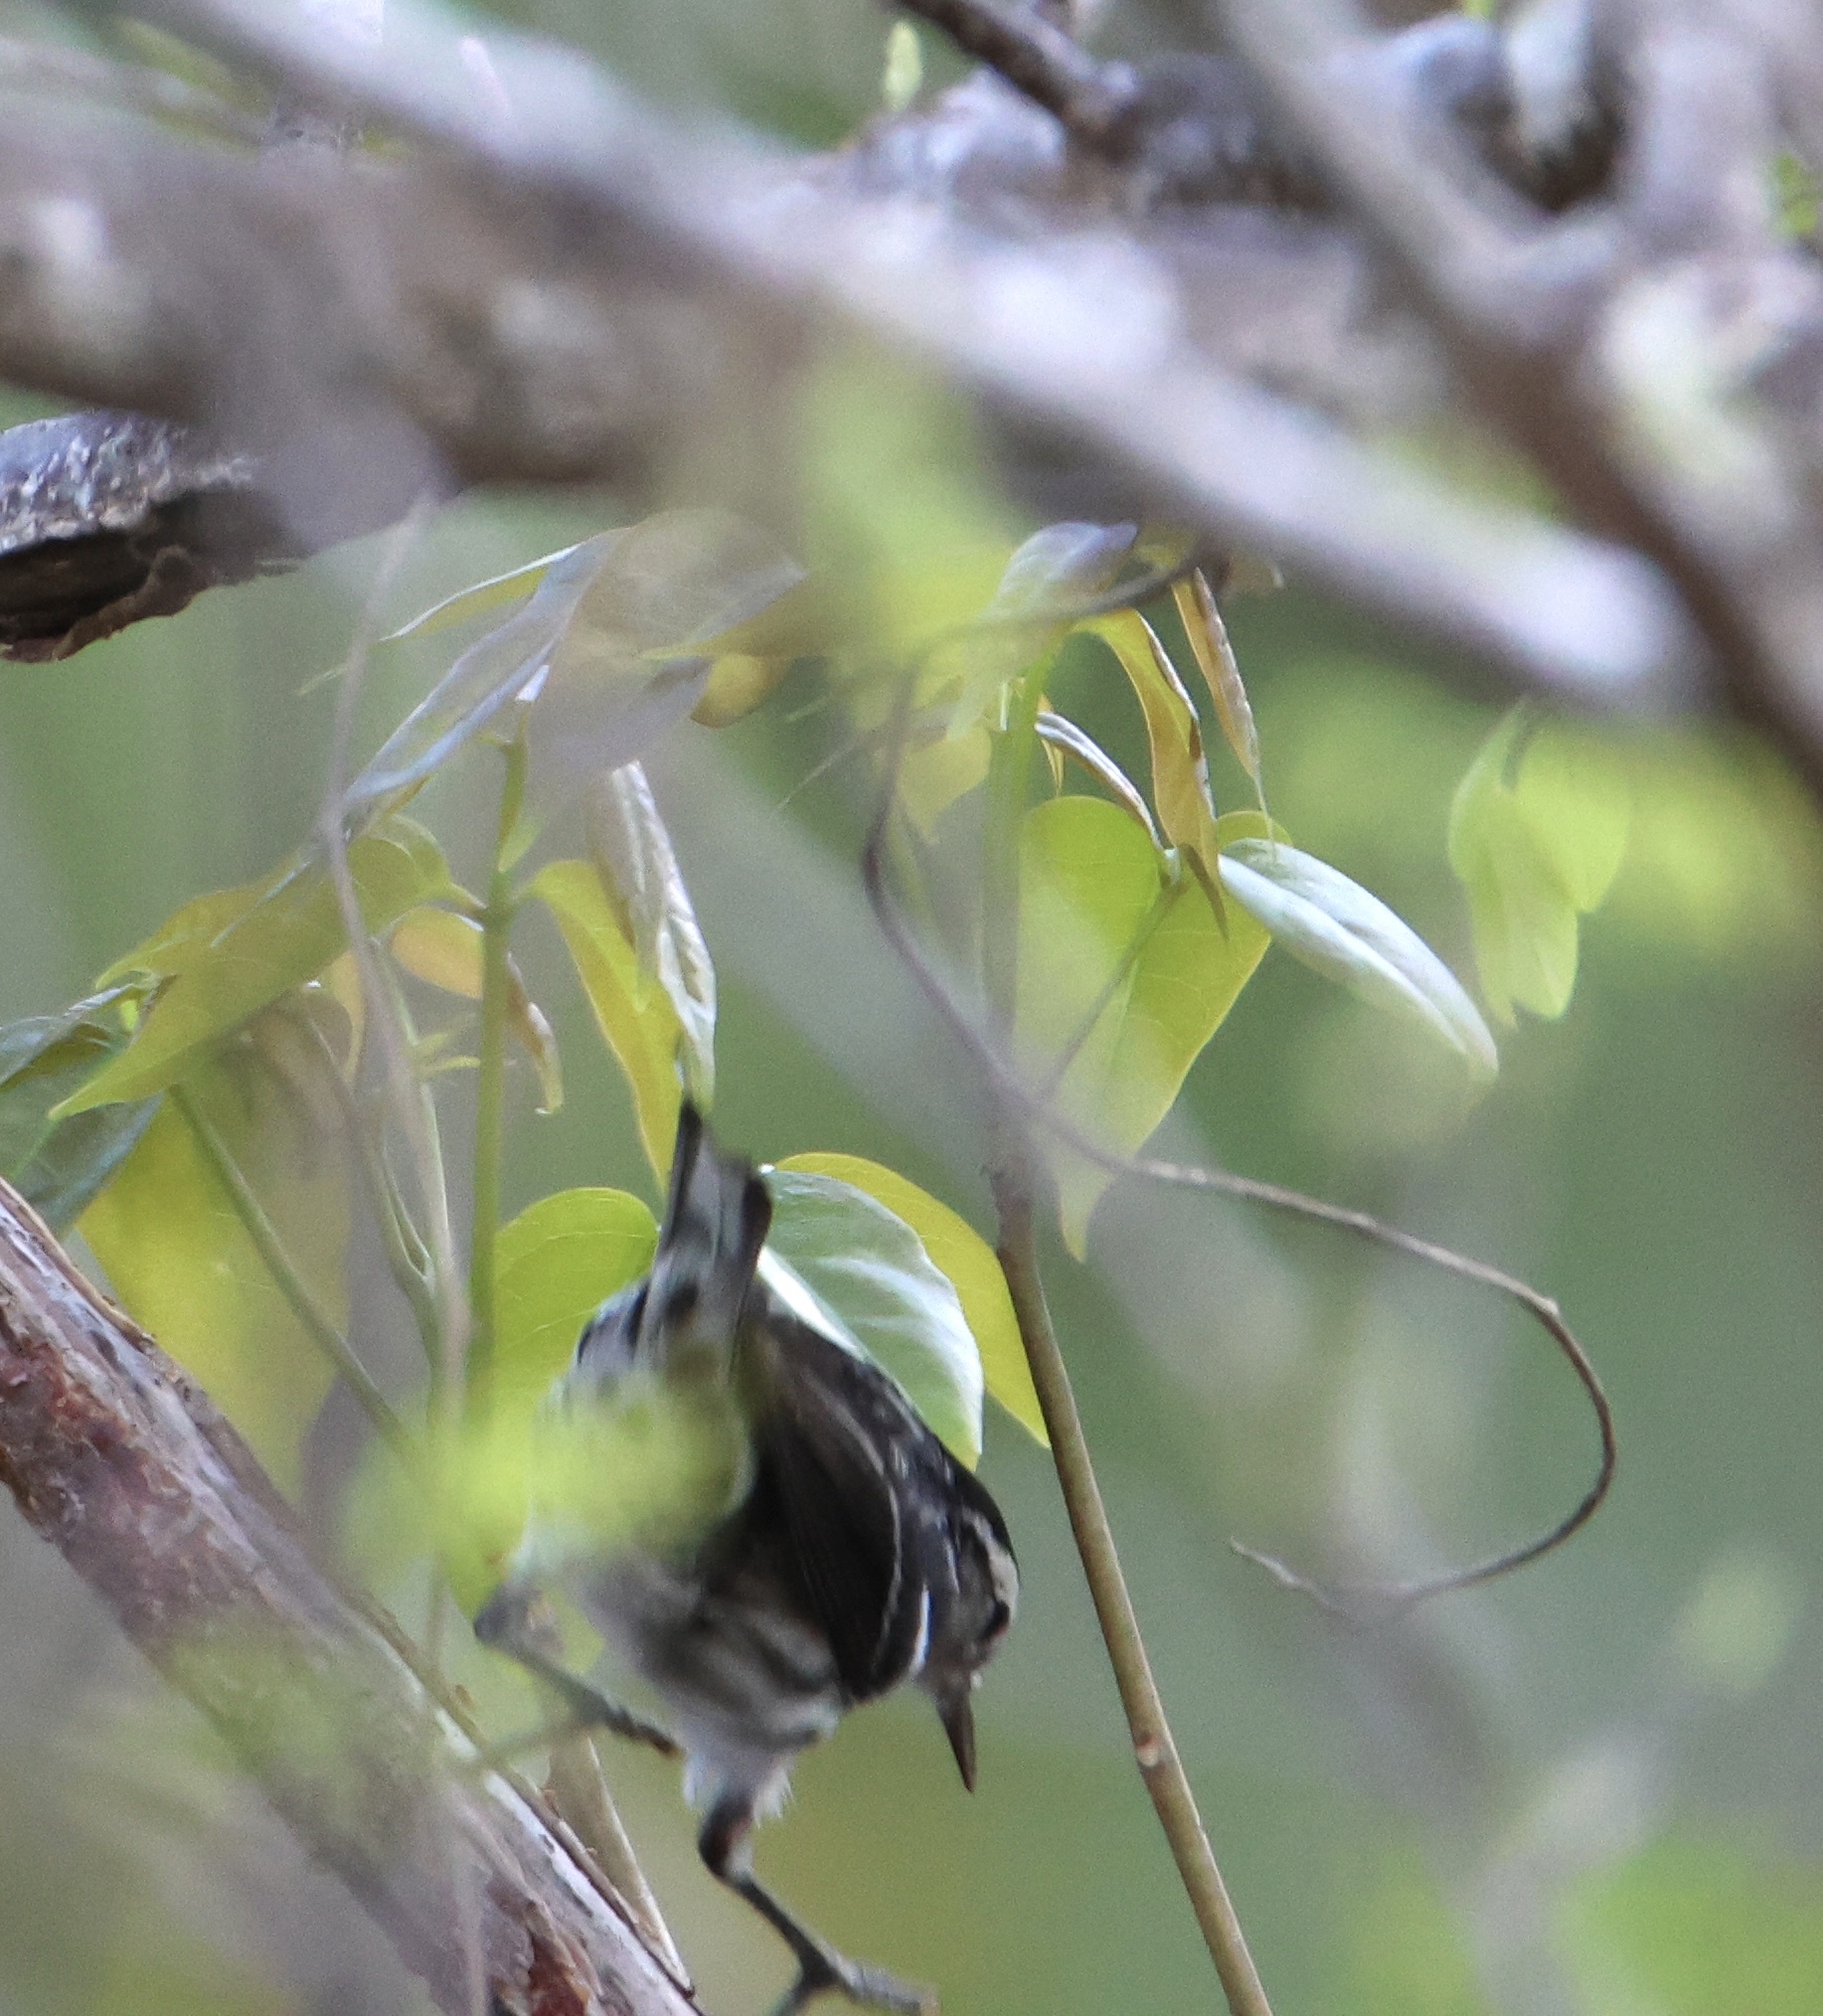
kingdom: Animalia
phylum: Chordata
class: Aves
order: Passeriformes
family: Parulidae
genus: Mniotilta
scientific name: Mniotilta varia
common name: Black-and-white warbler
